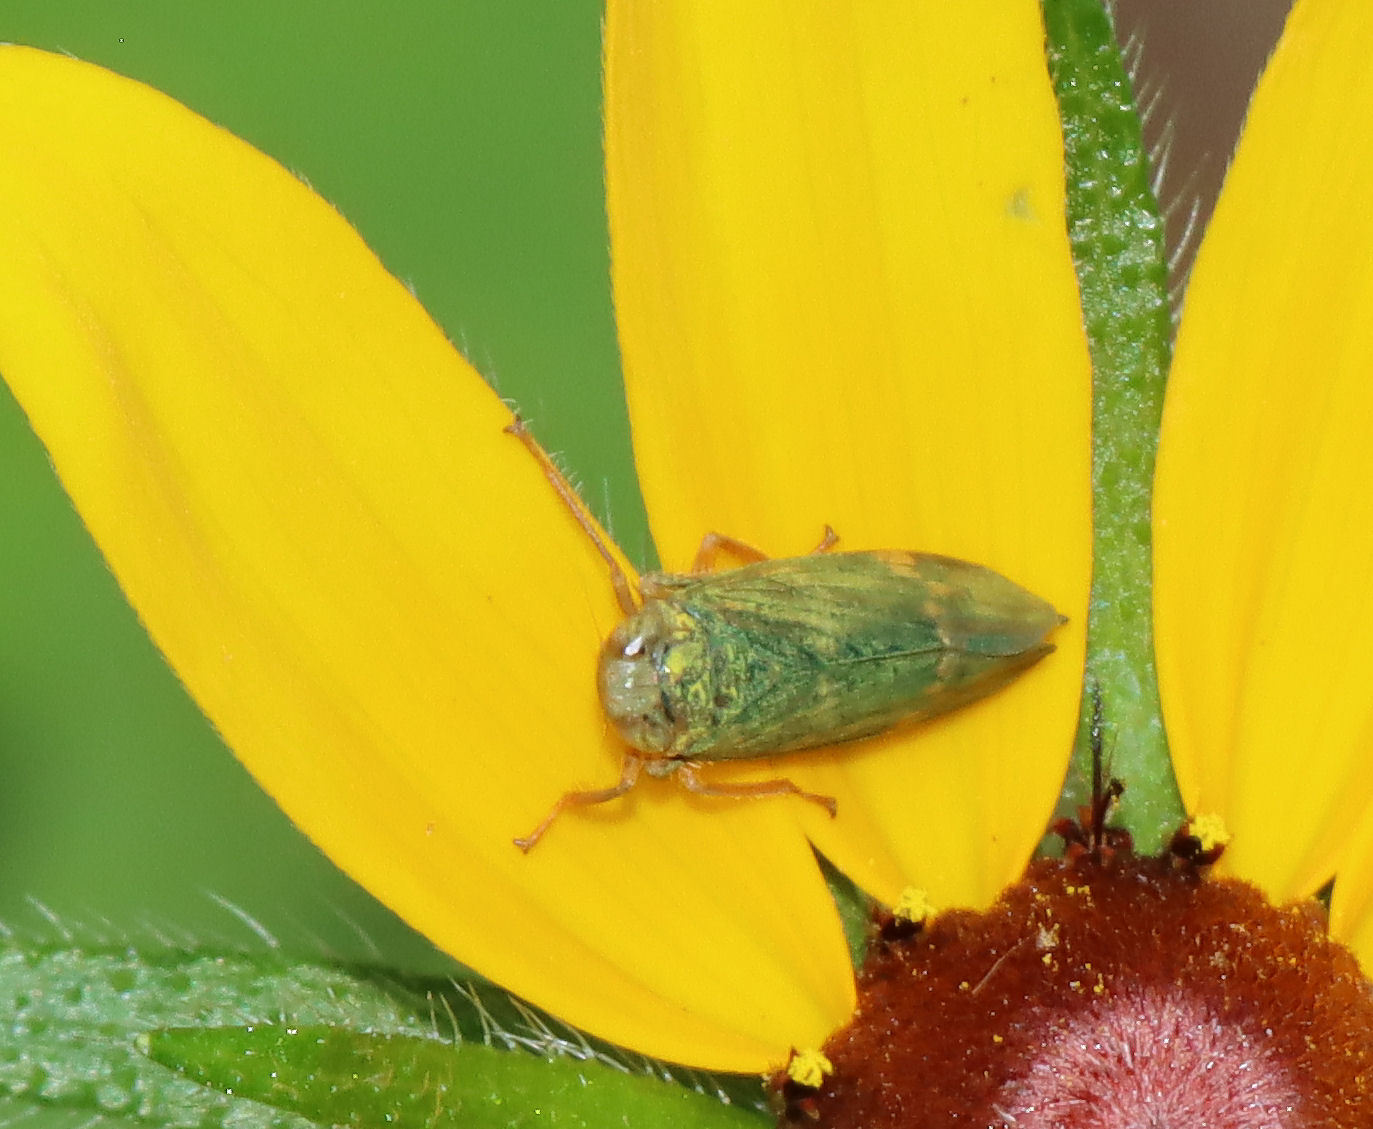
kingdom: Animalia
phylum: Arthropoda
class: Insecta
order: Hemiptera
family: Cicadellidae
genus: Jikradia
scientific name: Jikradia olitoria
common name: Coppery leafhopper
